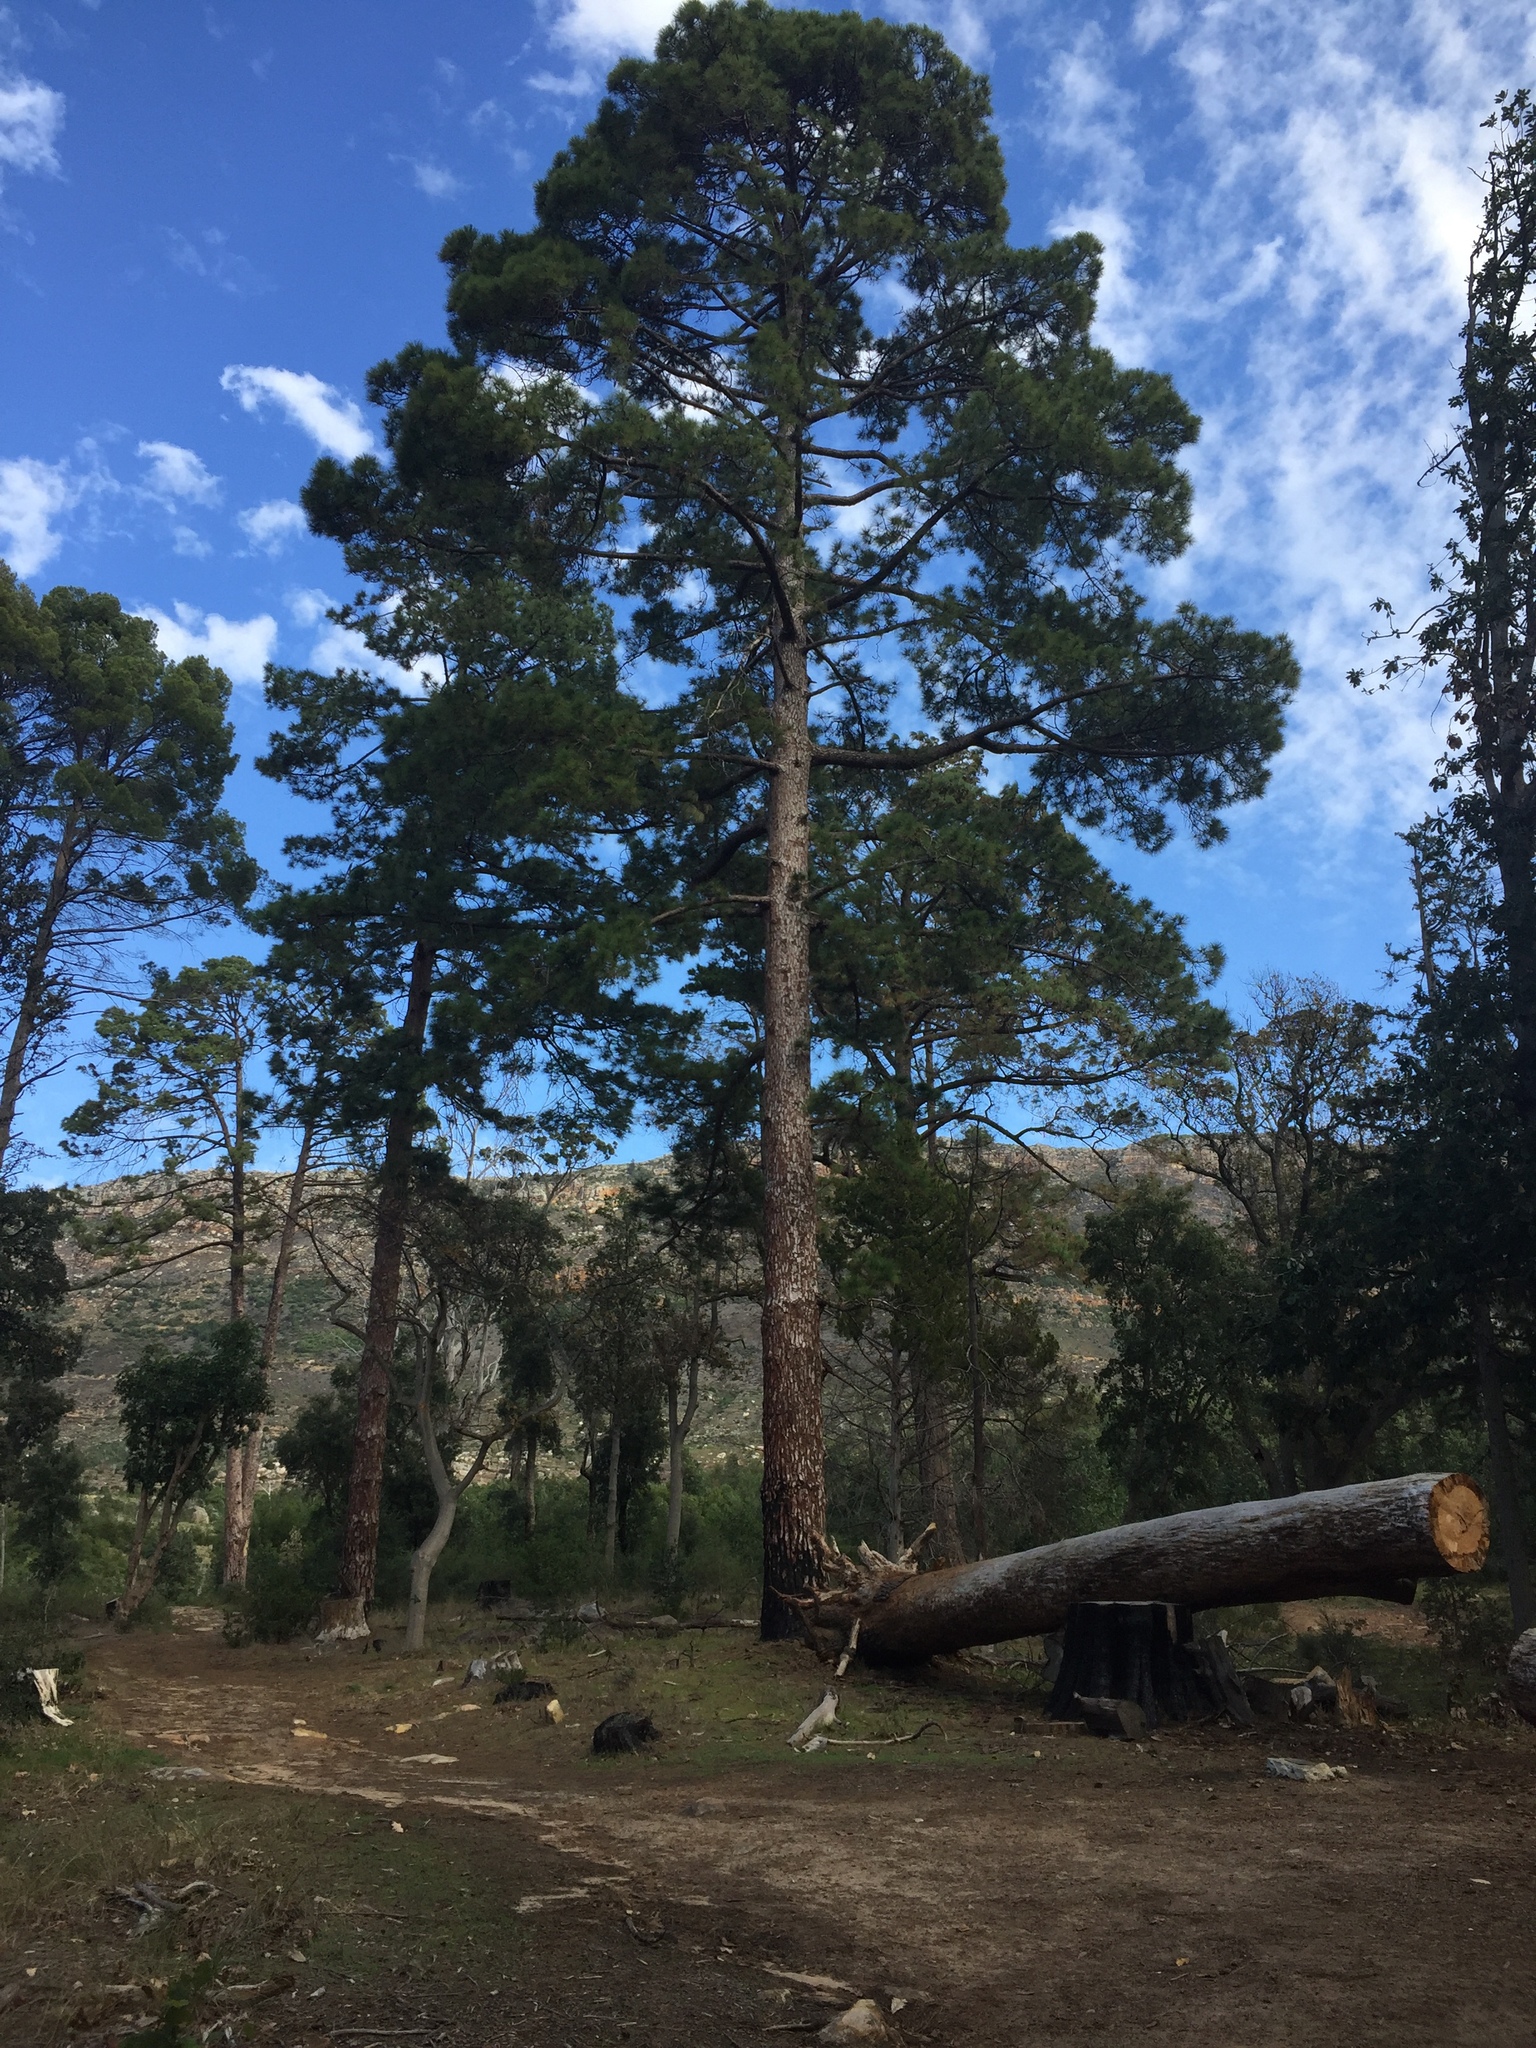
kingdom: Plantae
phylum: Tracheophyta
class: Pinopsida
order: Pinales
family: Pinaceae
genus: Pinus
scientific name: Pinus canariensis
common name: Canary islands pine
